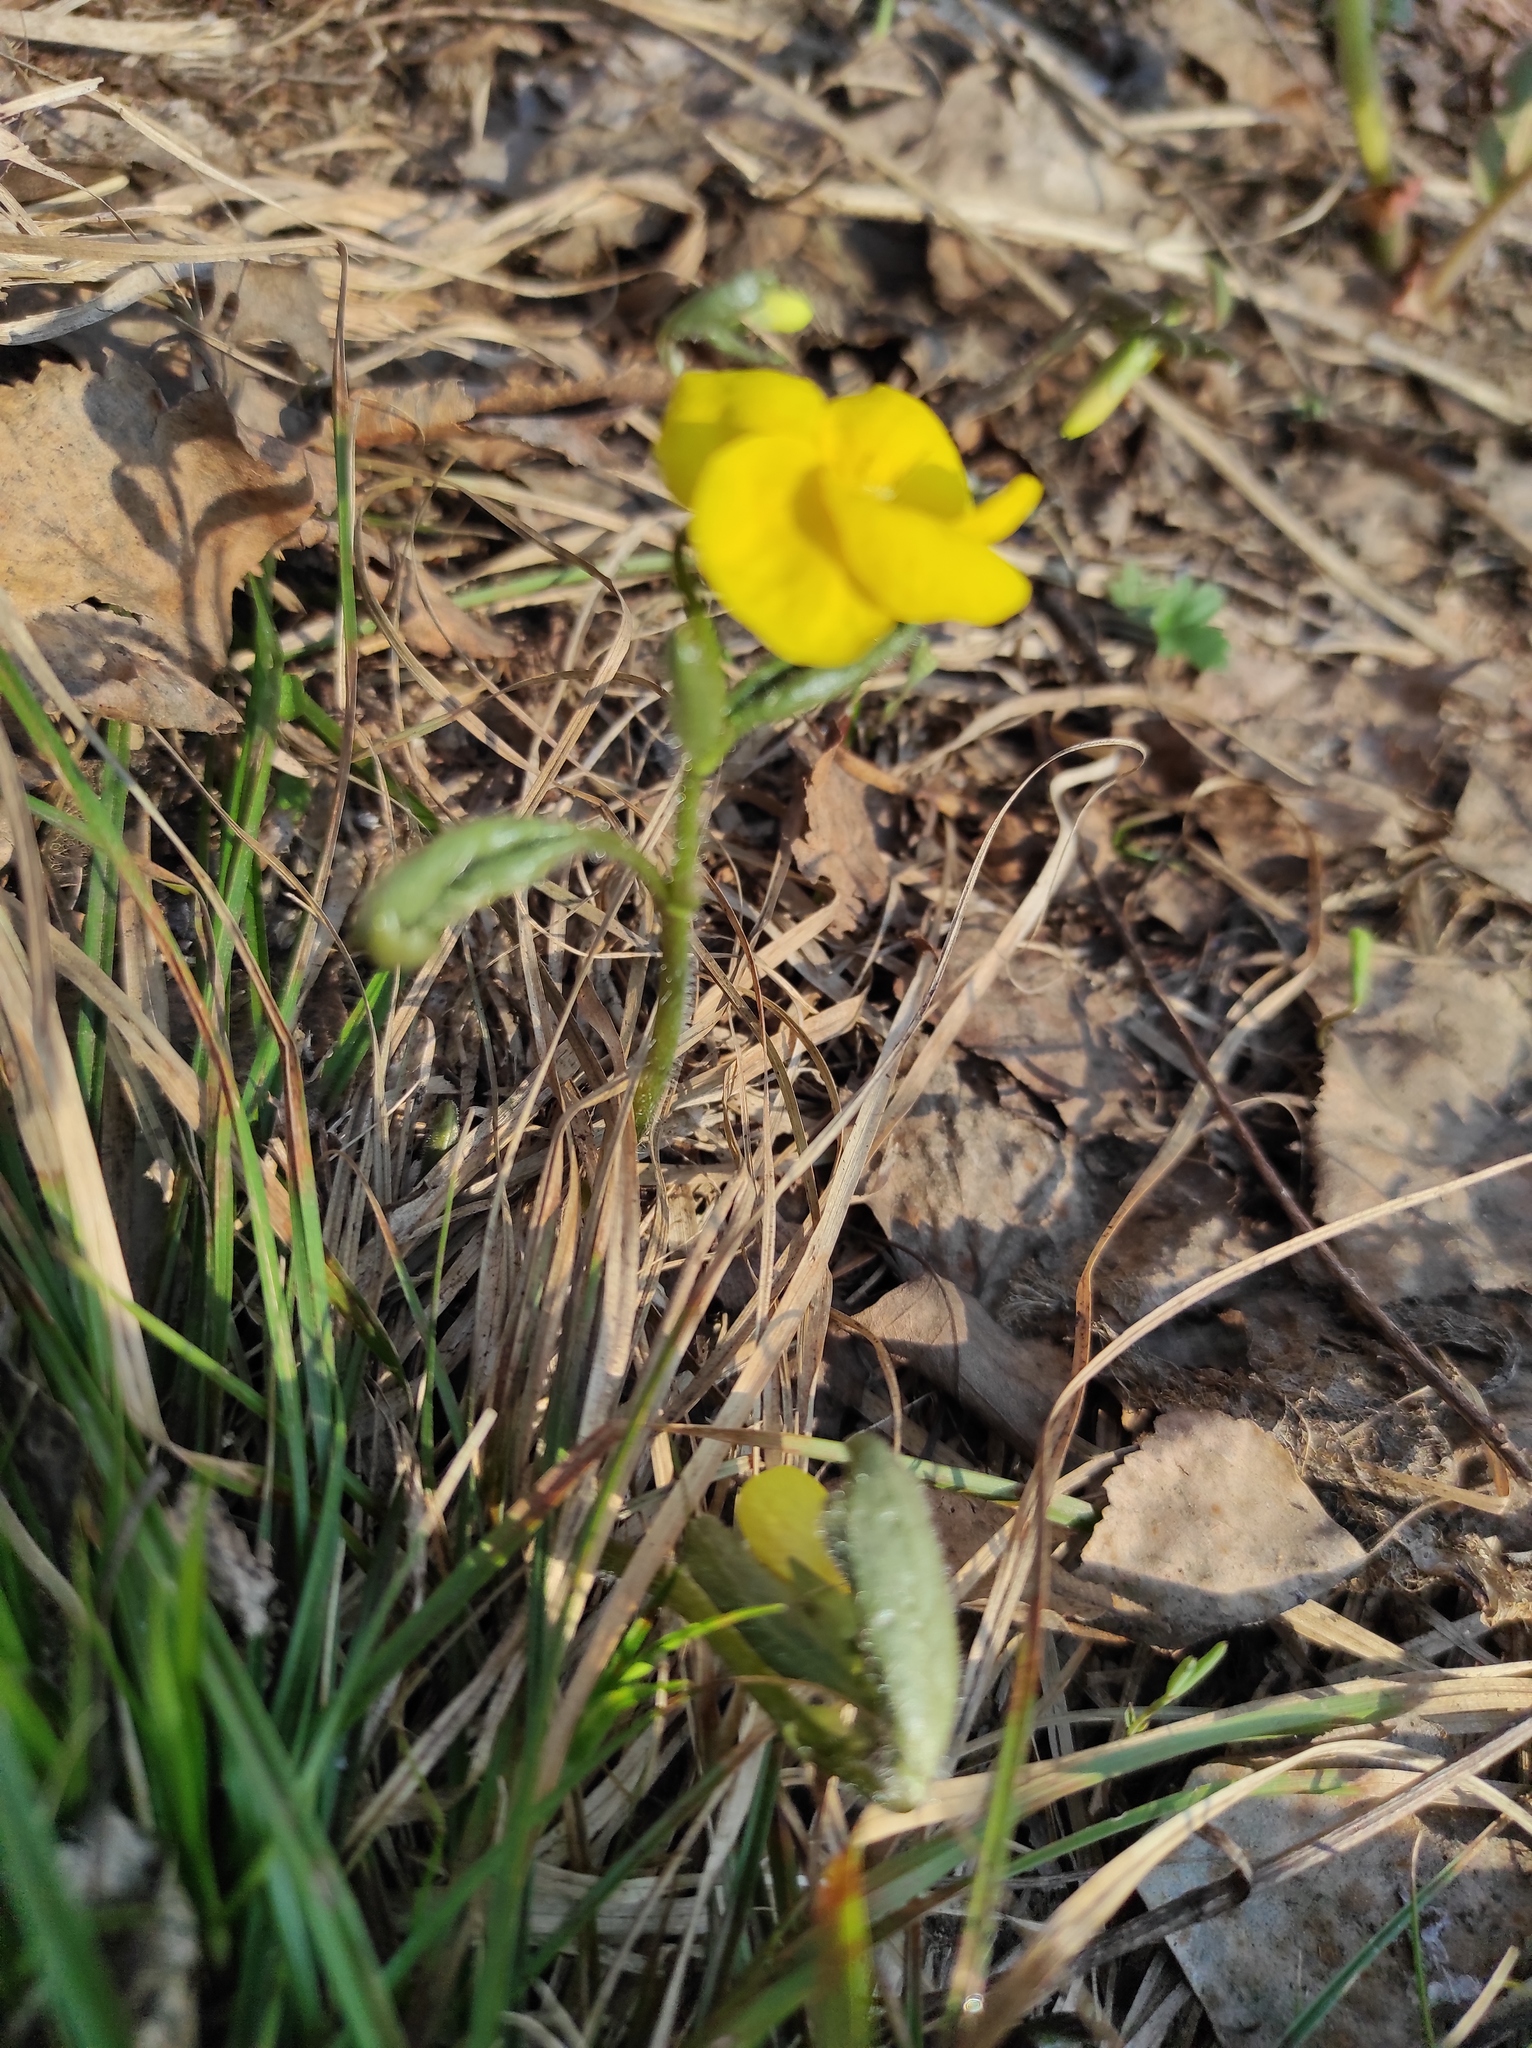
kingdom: Plantae
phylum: Tracheophyta
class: Magnoliopsida
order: Malpighiales
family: Violaceae
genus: Viola
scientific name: Viola uniflora
